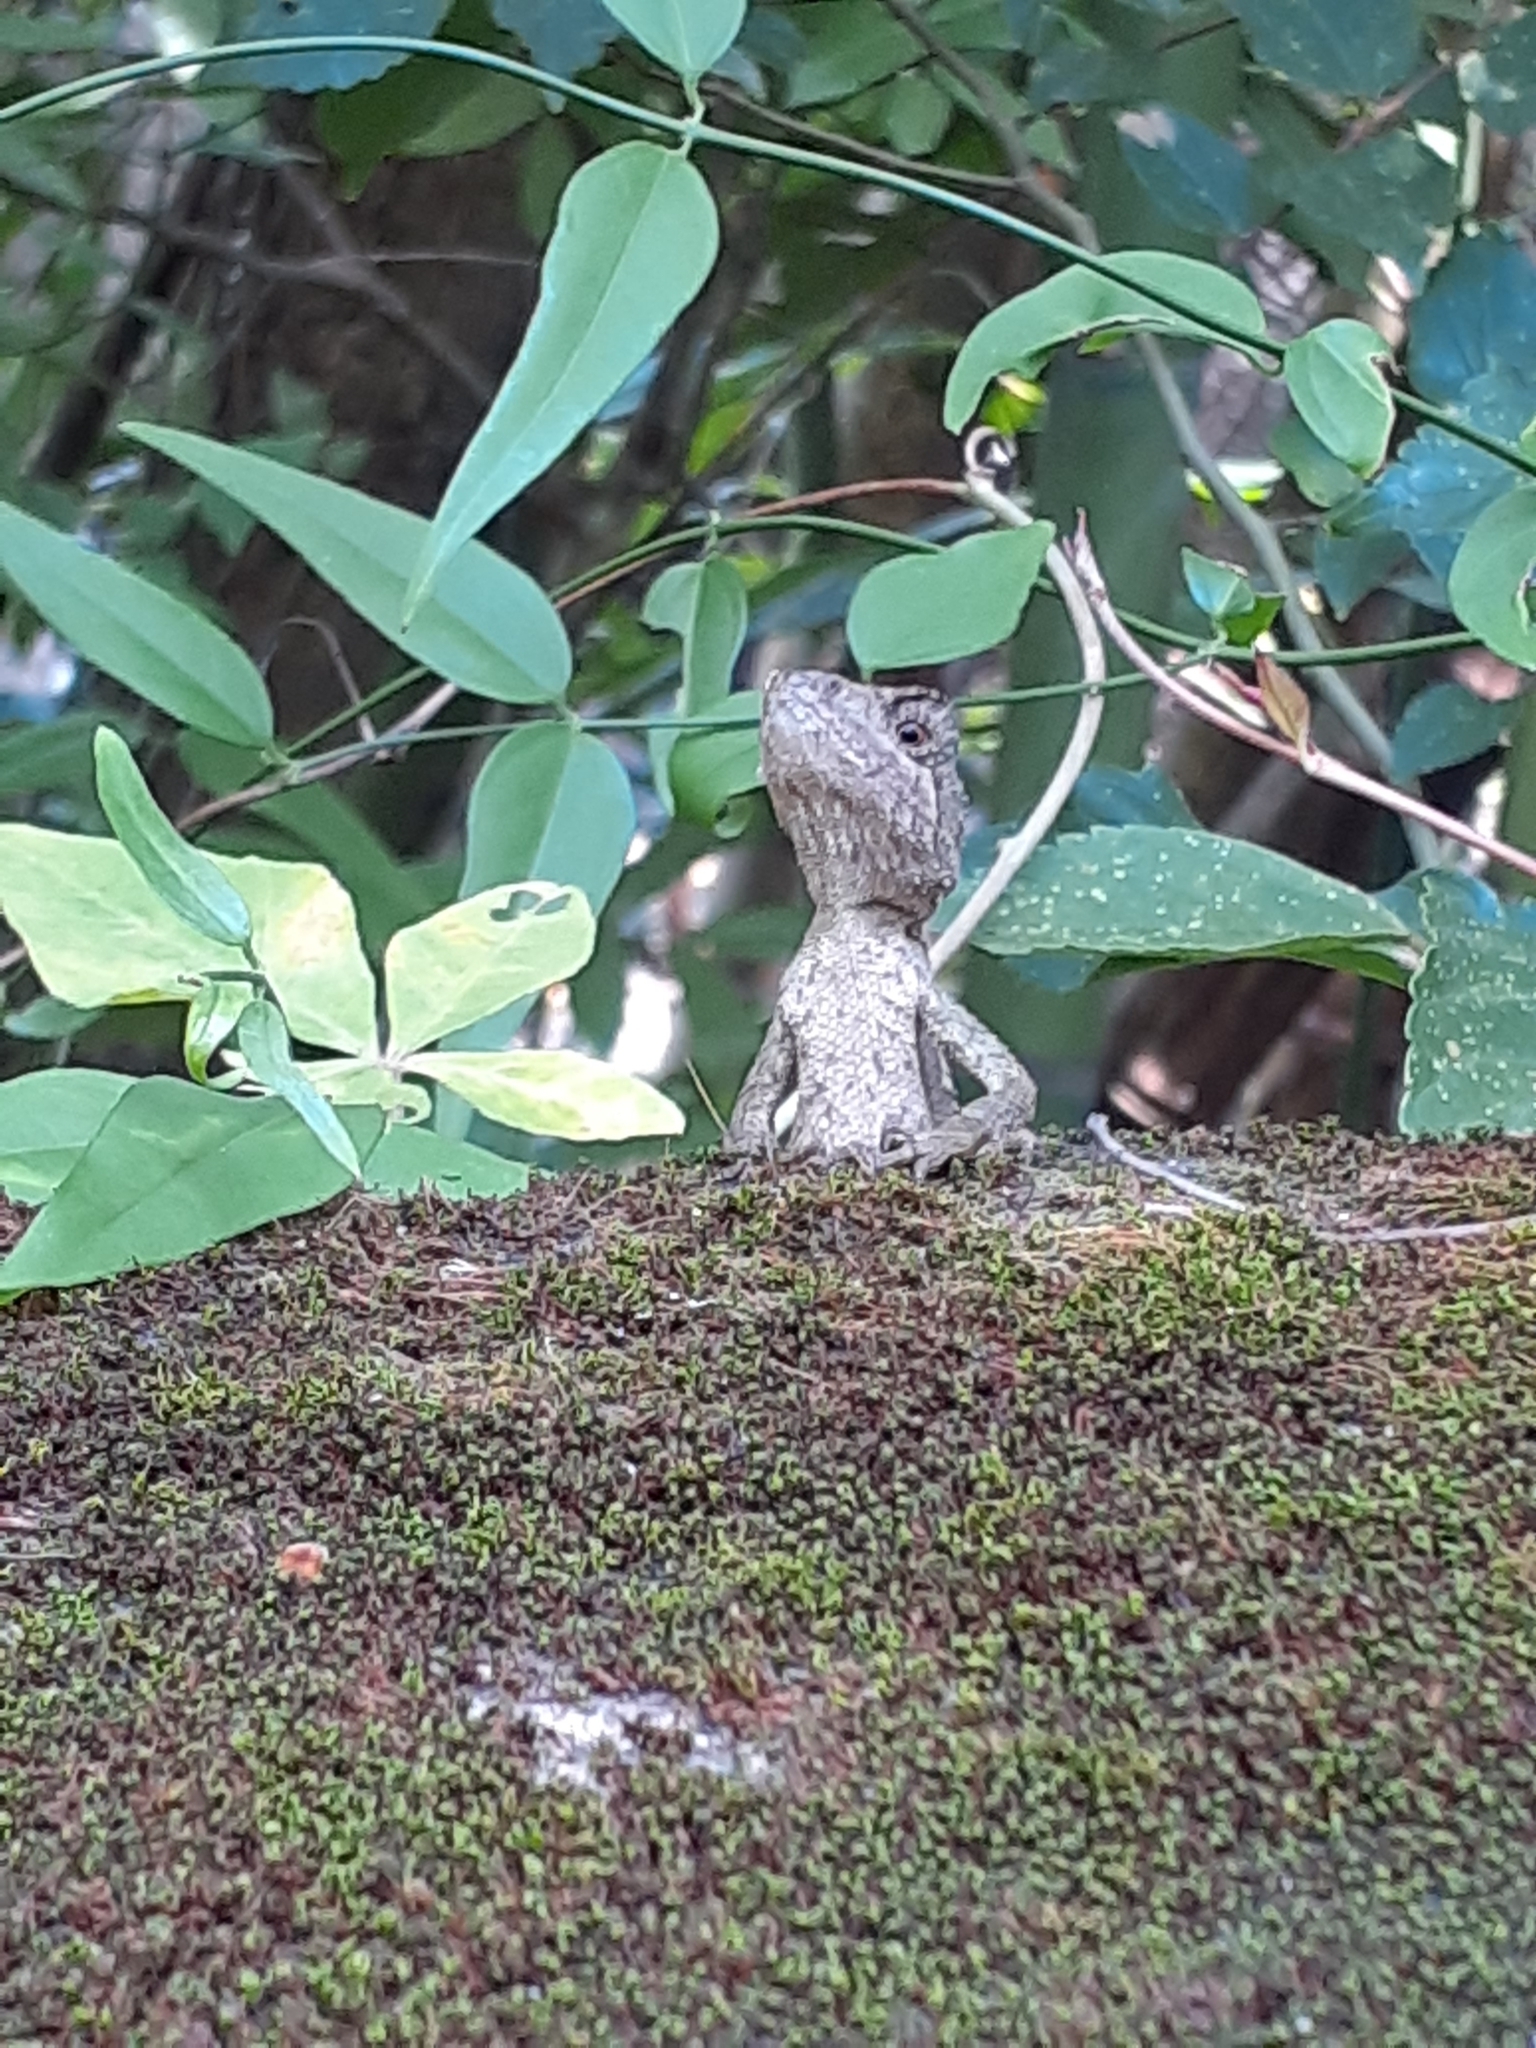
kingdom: Animalia
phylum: Chordata
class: Squamata
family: Agamidae
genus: Diploderma
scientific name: Diploderma swinhonis
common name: Taiwan japalure
